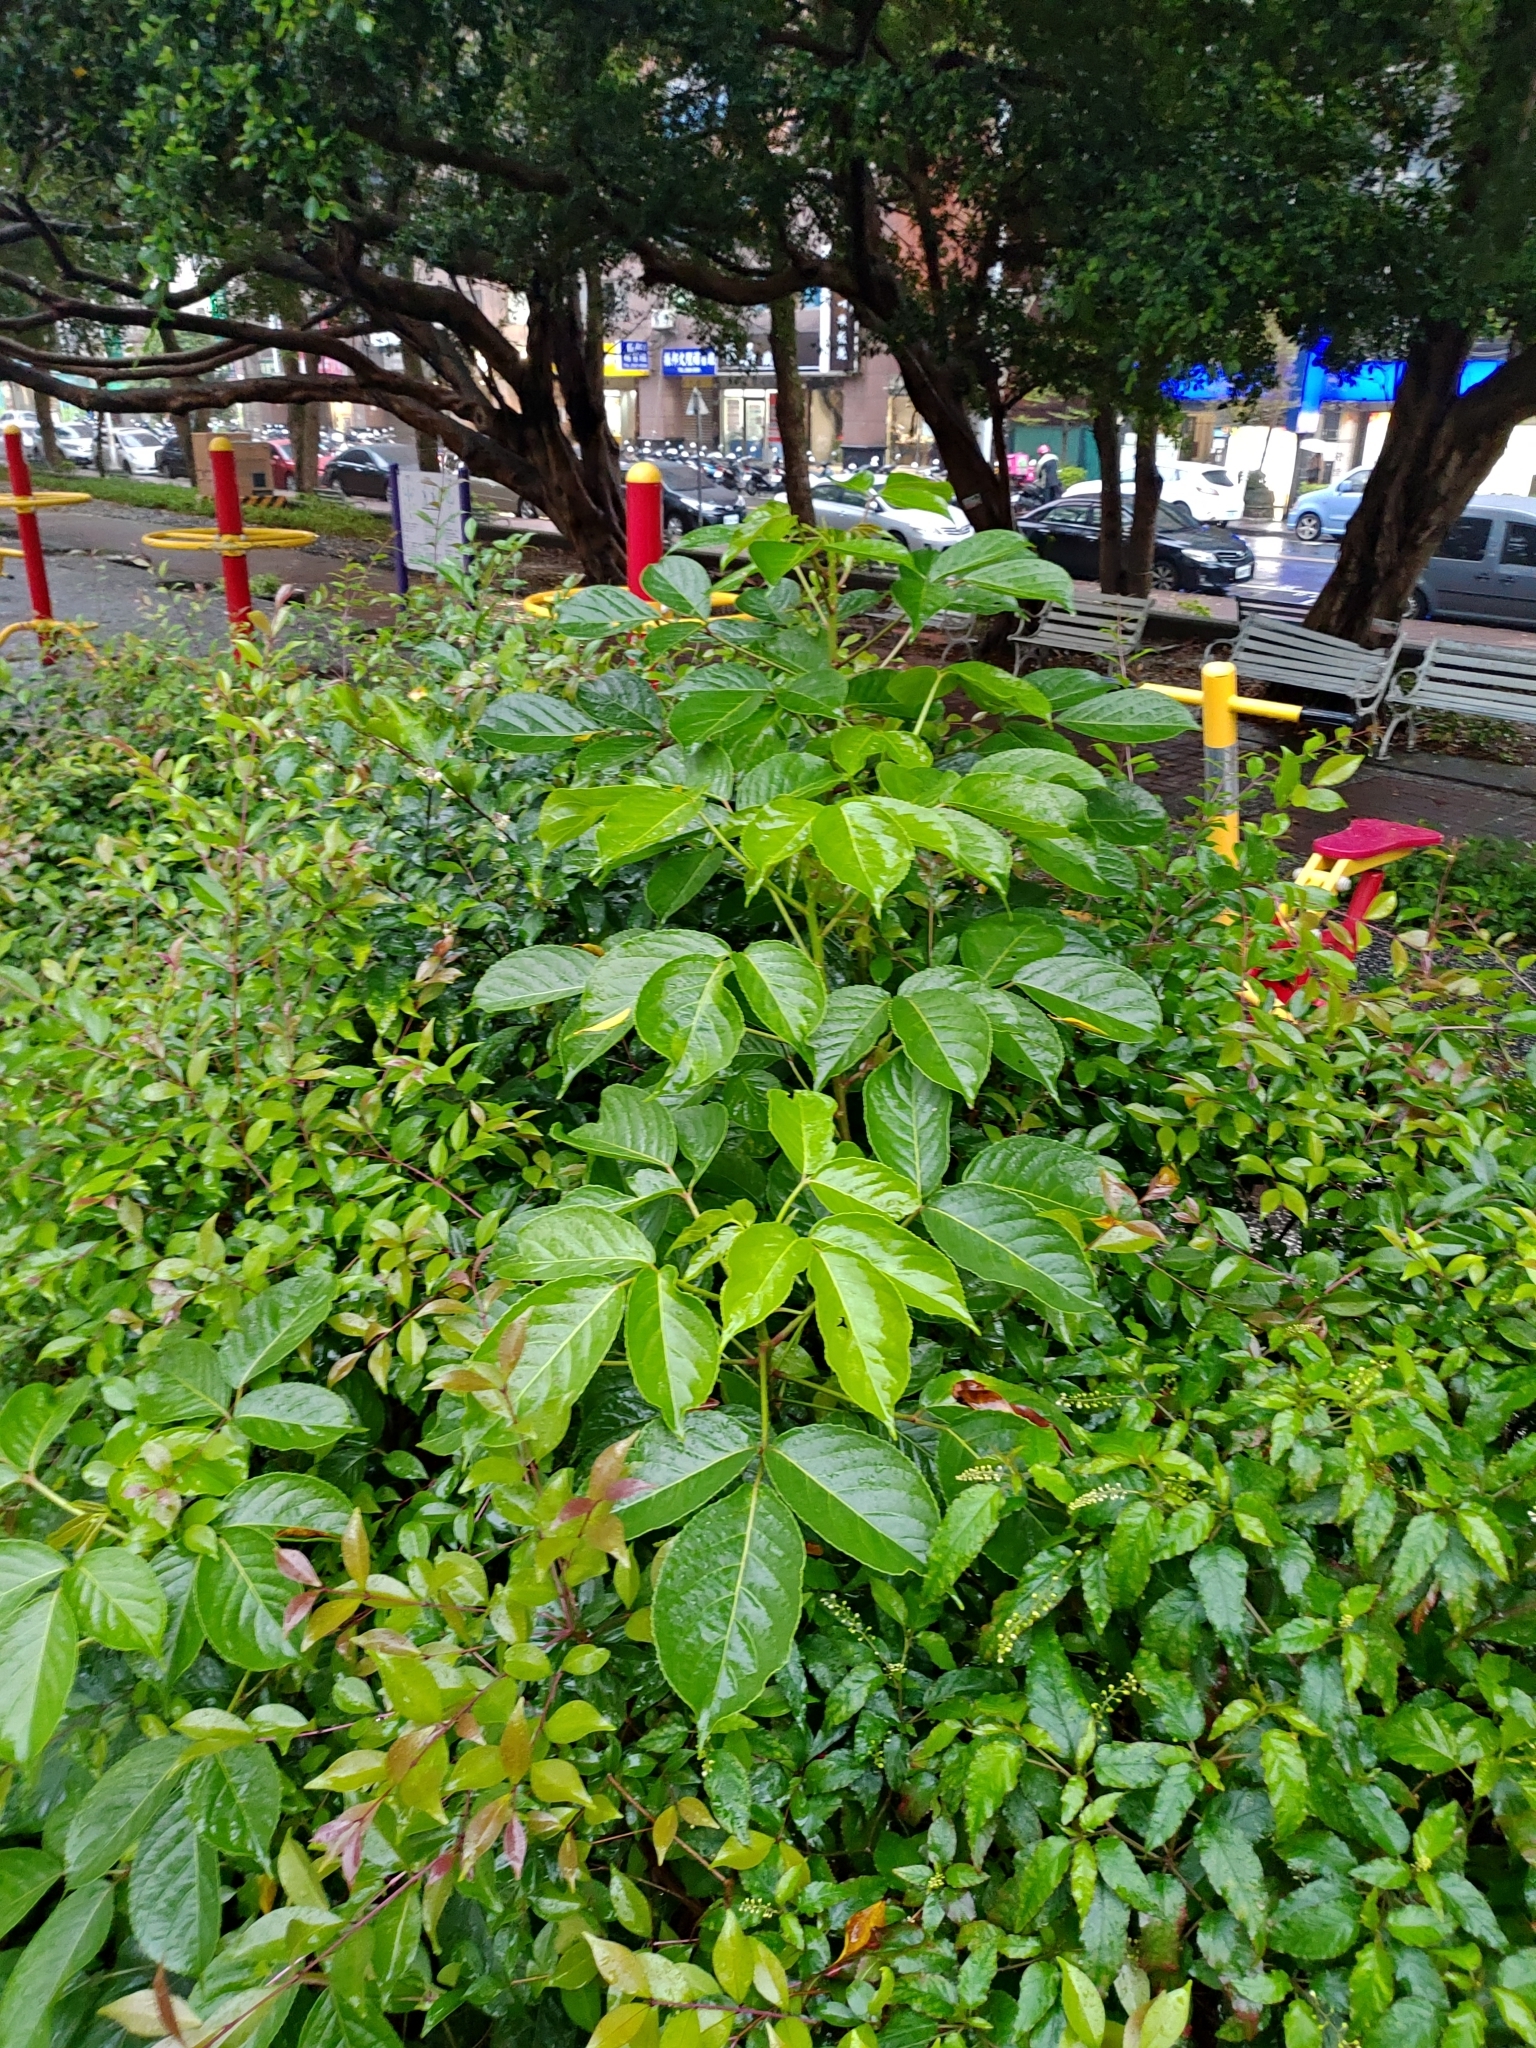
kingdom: Plantae
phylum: Tracheophyta
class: Magnoliopsida
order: Malpighiales
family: Phyllanthaceae
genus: Bischofia
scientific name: Bischofia javanica
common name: Javanese bishopwood
